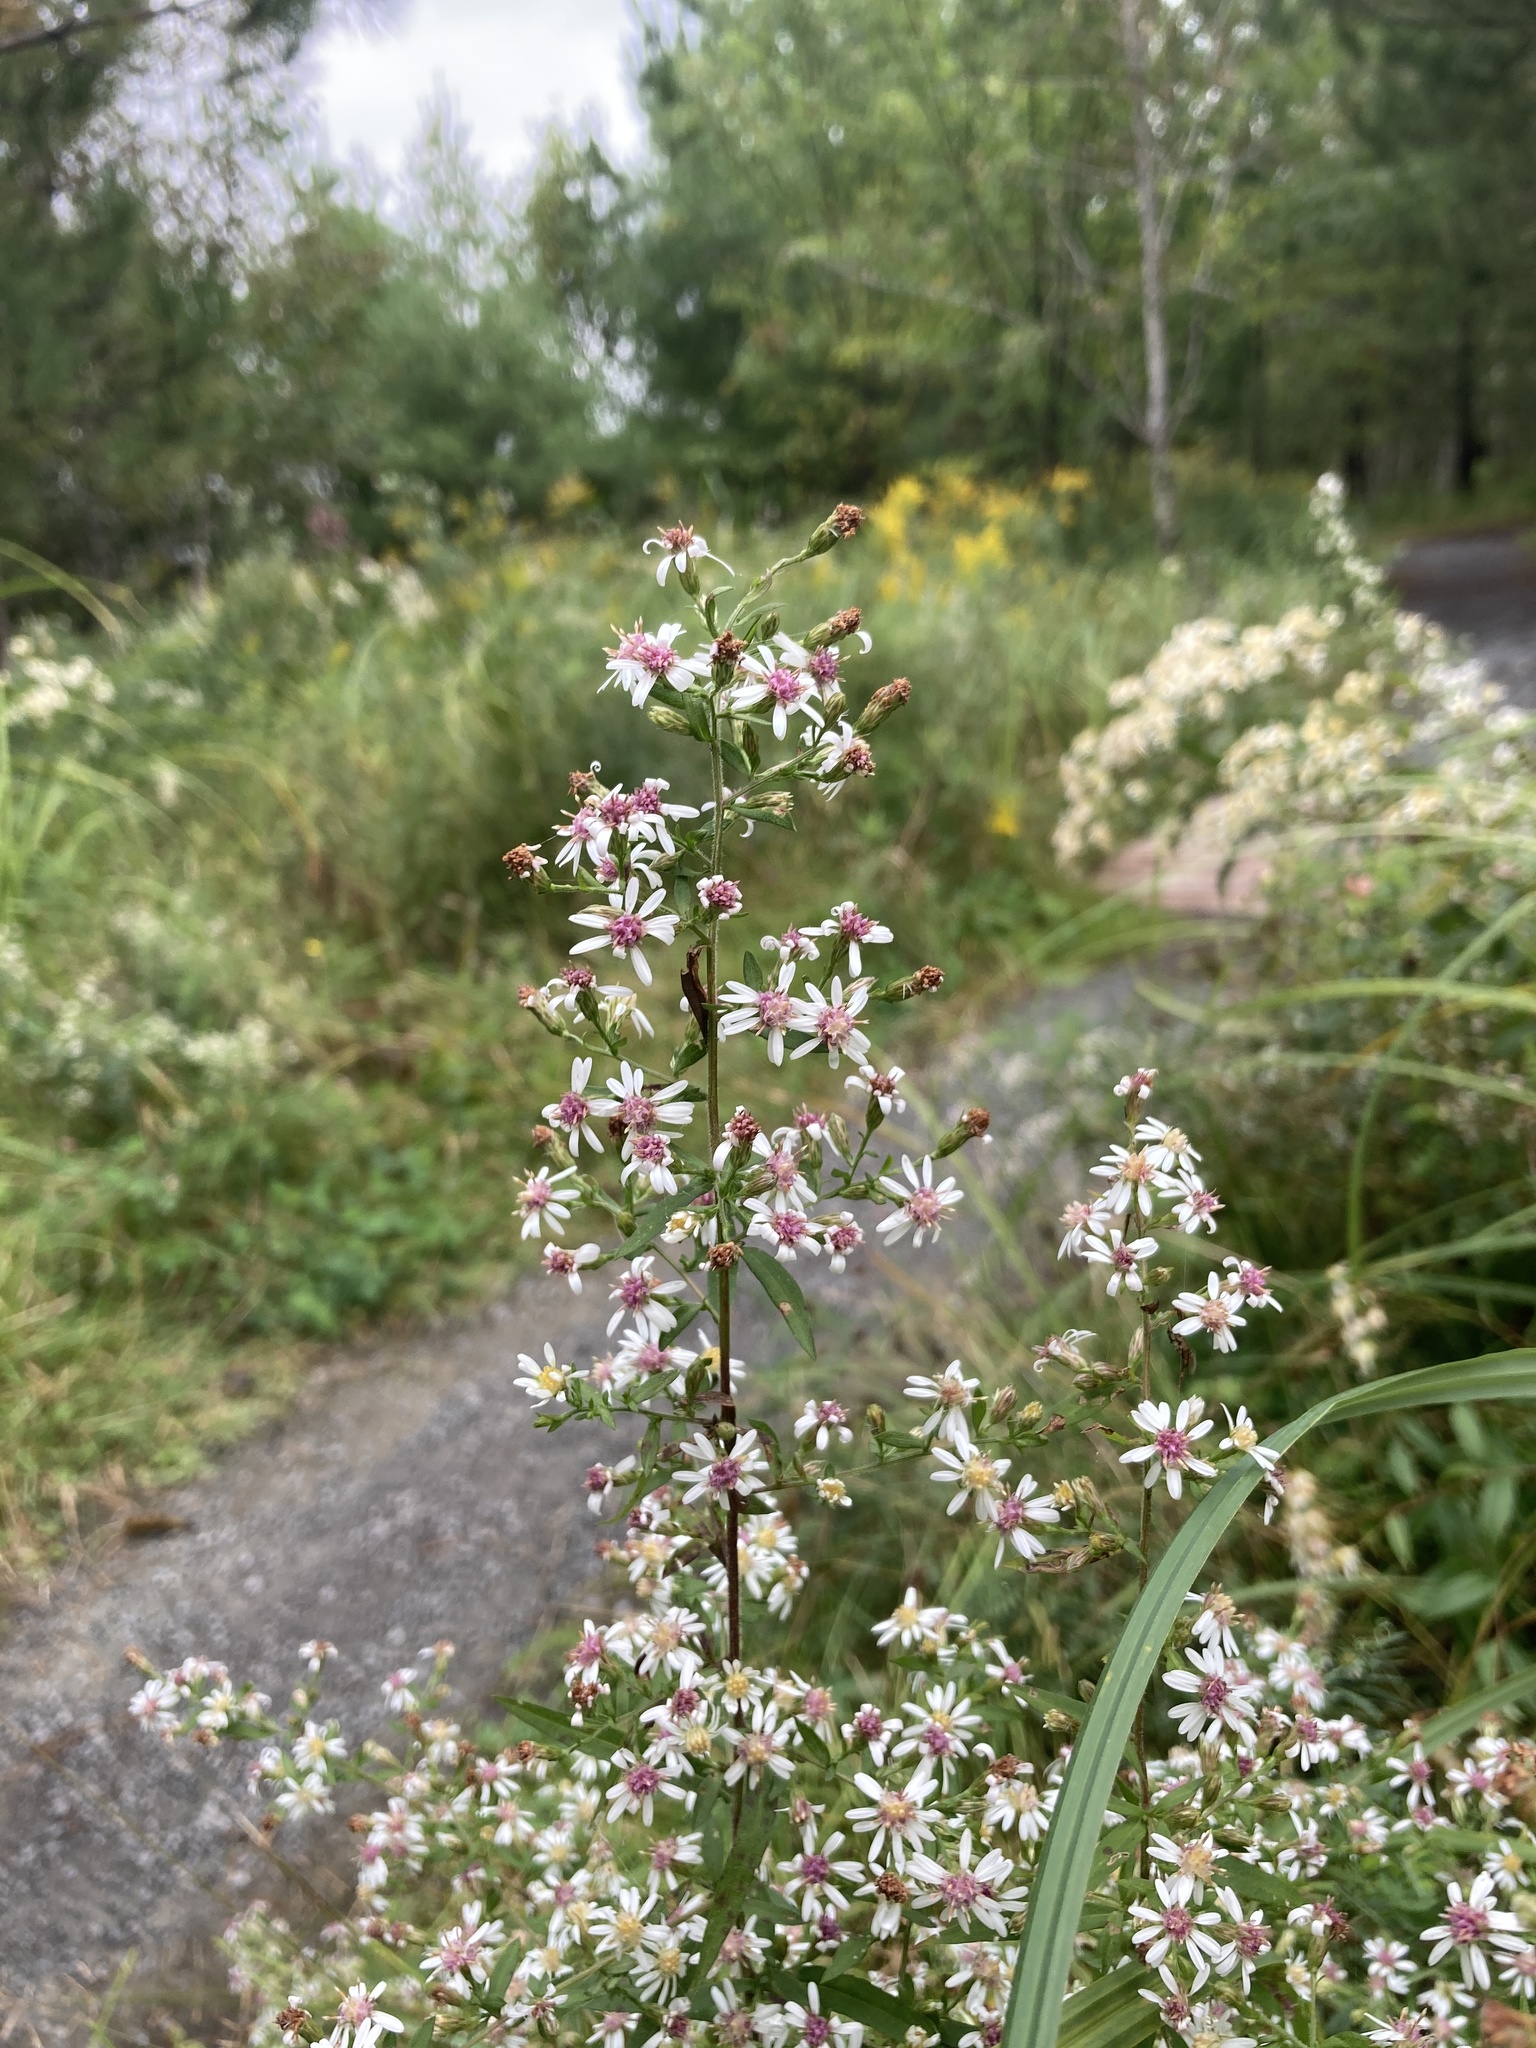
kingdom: Plantae
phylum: Tracheophyta
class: Magnoliopsida
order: Asterales
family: Asteraceae
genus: Symphyotrichum
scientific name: Symphyotrichum lateriflorum
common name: Calico aster
